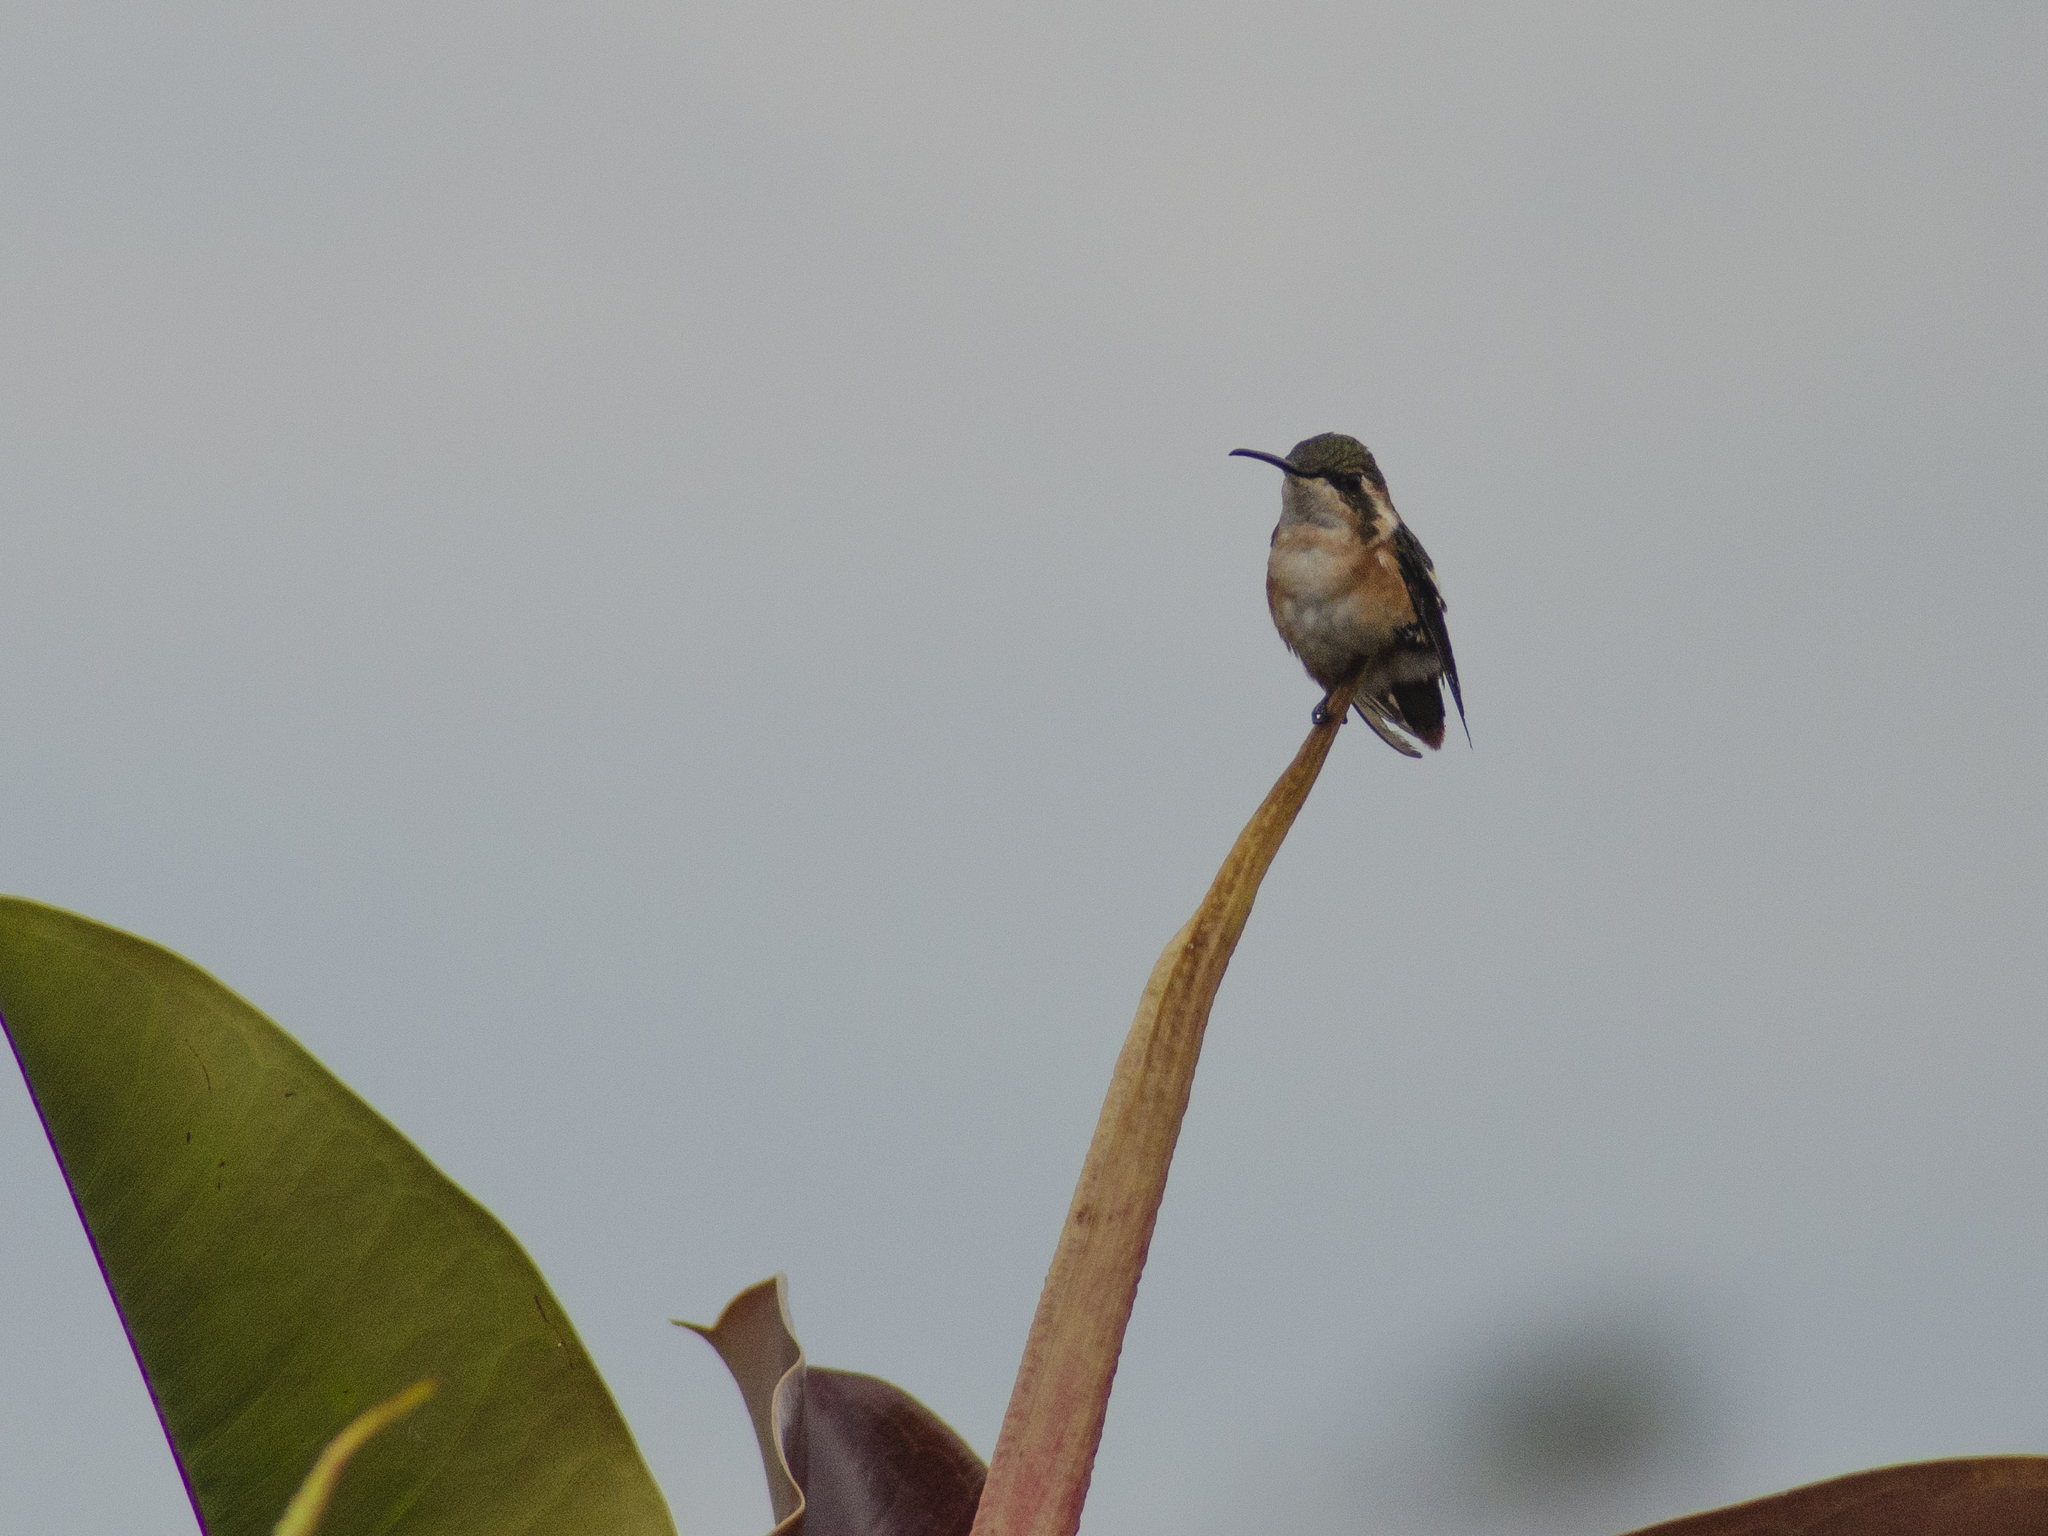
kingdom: Animalia
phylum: Chordata
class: Aves
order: Apodiformes
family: Trochilidae
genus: Chaetocercus
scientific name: Chaetocercus mulsant
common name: White-bellied woodstar
